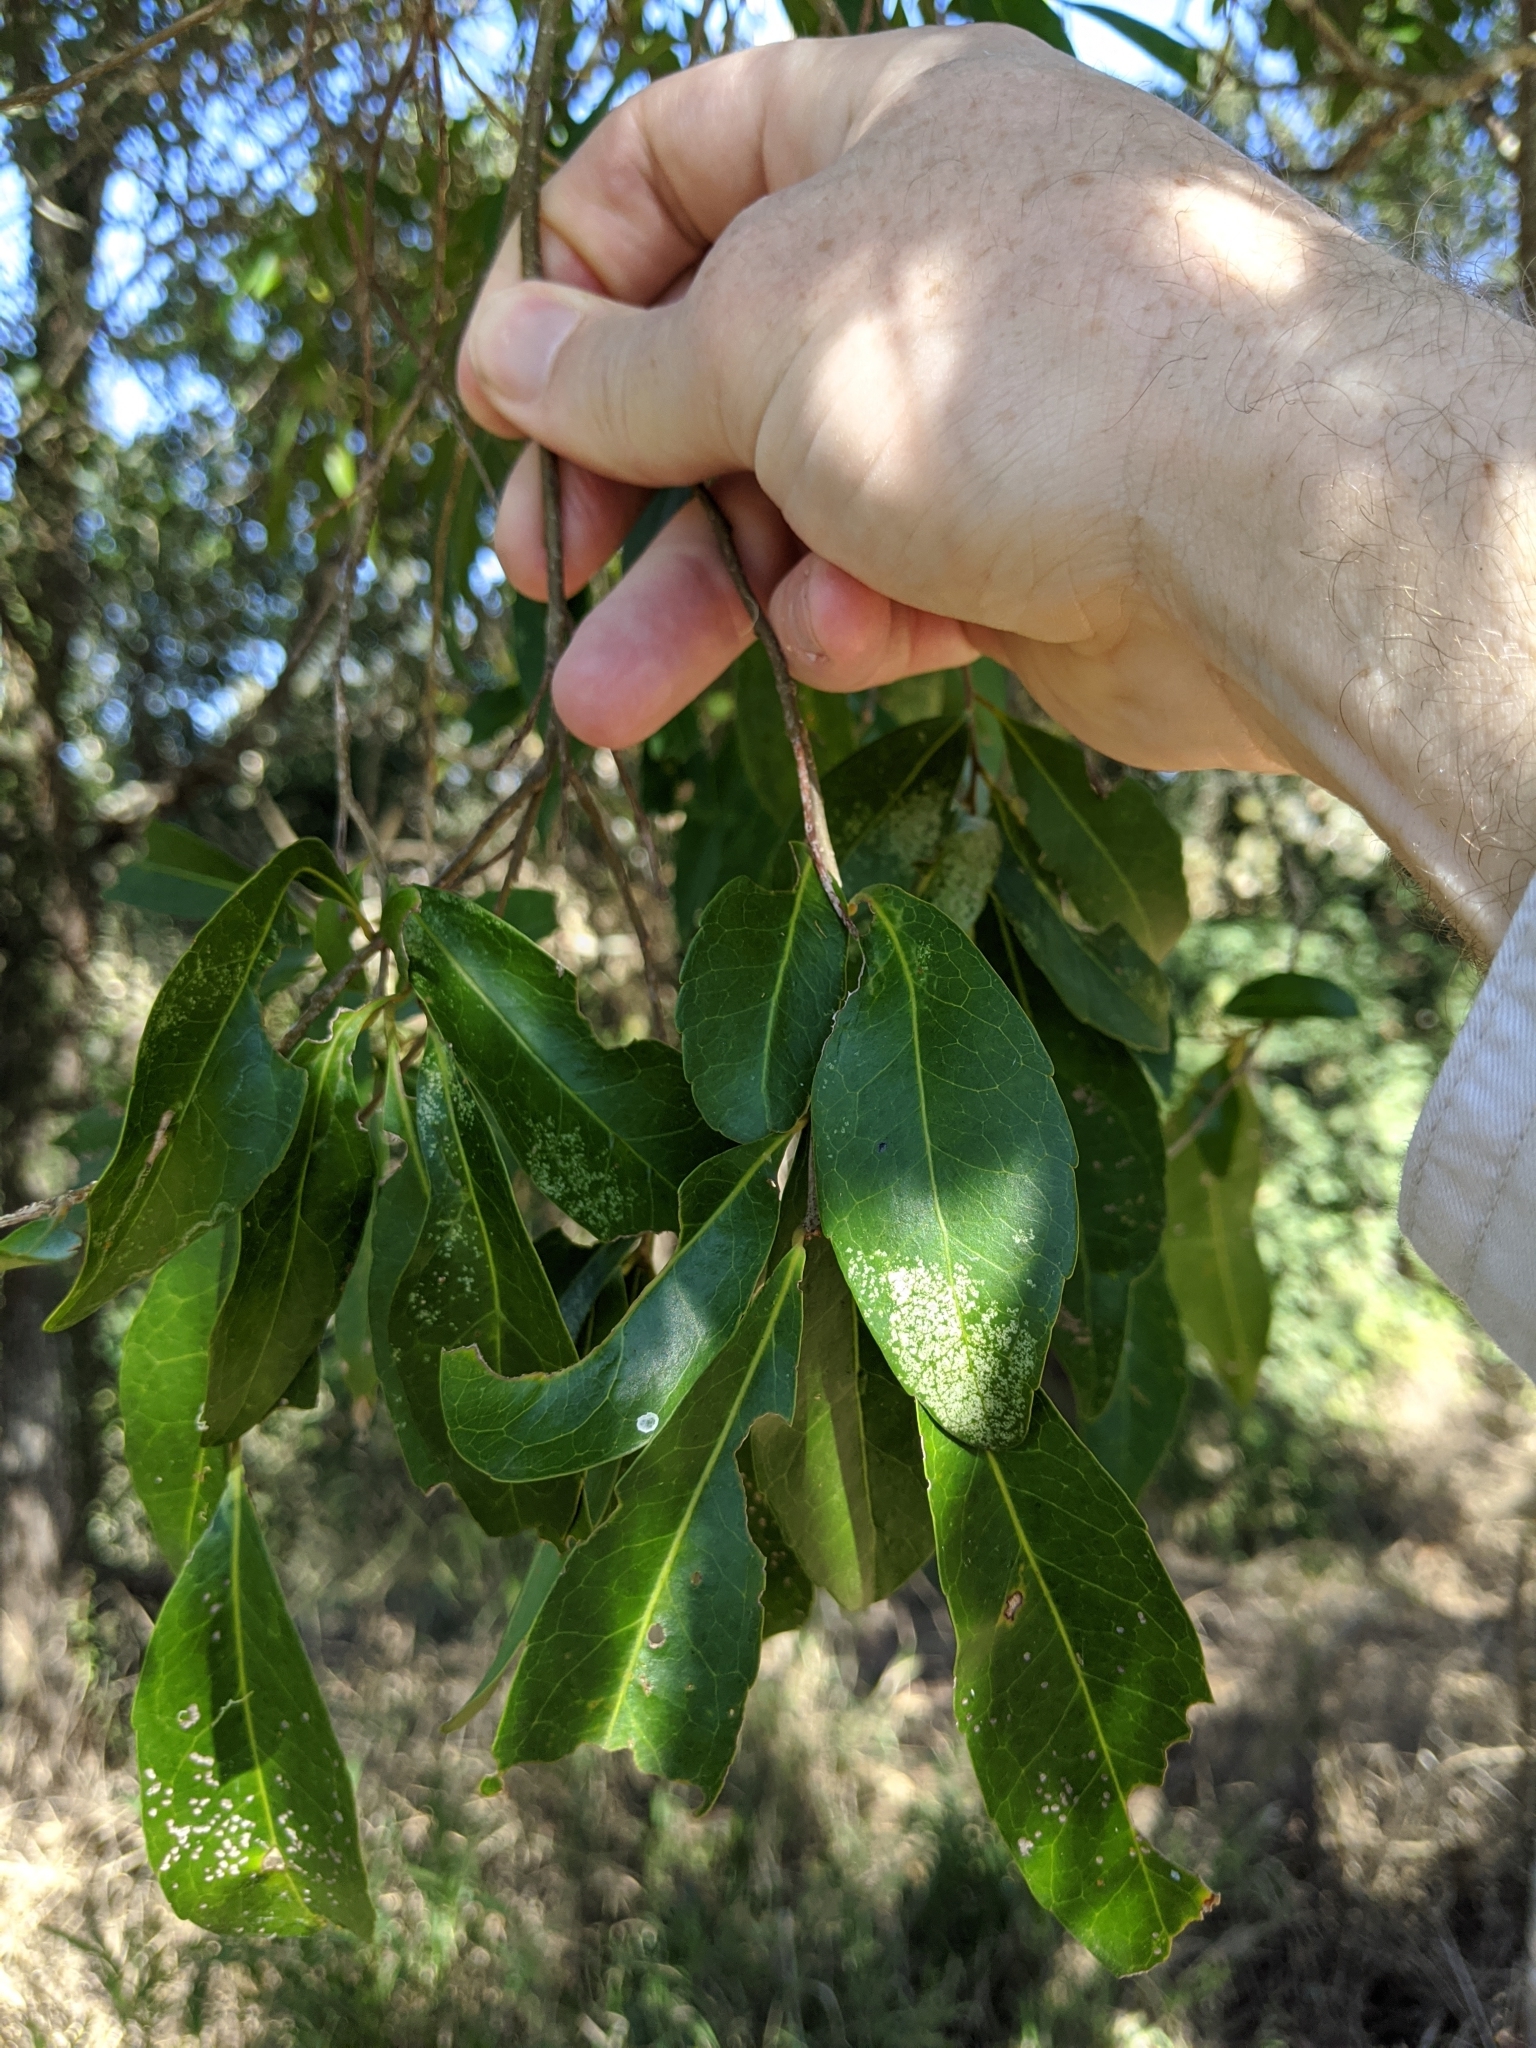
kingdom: Plantae
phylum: Tracheophyta
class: Magnoliopsida
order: Oxalidales
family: Elaeocarpaceae
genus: Elaeocarpus
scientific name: Elaeocarpus obovatus
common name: Freckled oliveberry
